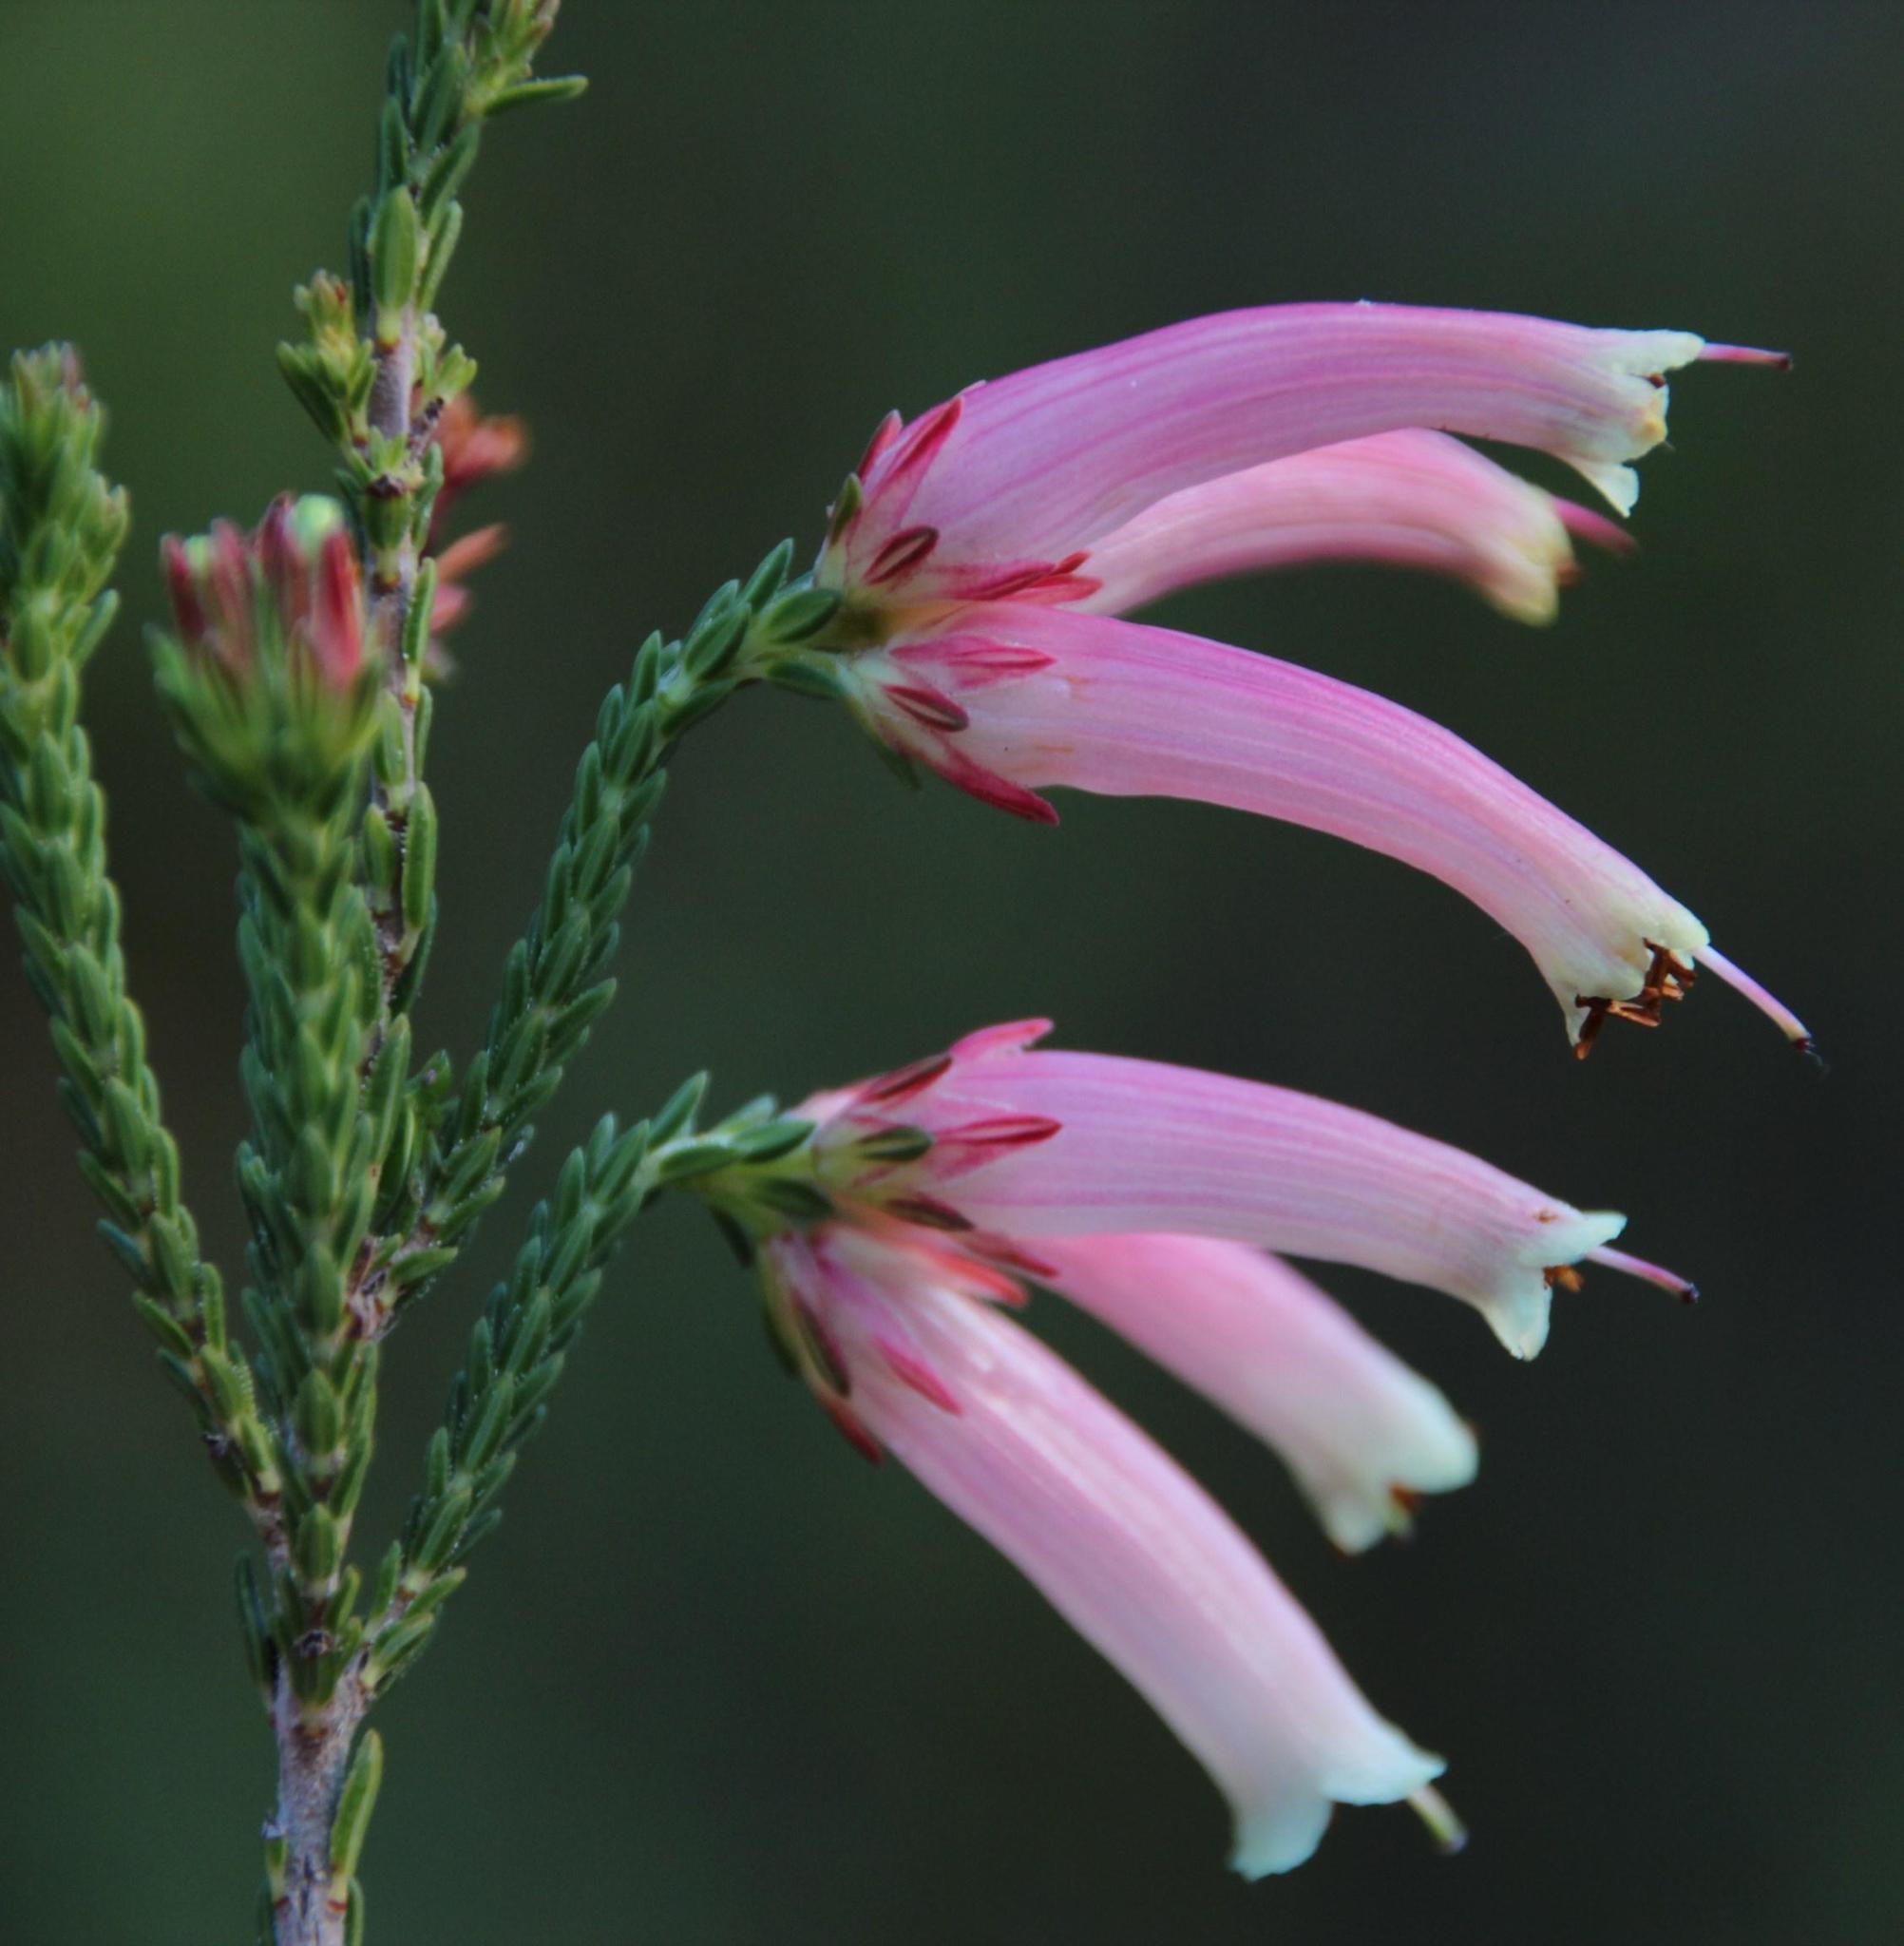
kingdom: Plantae
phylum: Tracheophyta
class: Magnoliopsida
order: Ericales
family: Ericaceae
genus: Erica
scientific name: Erica versicolor
